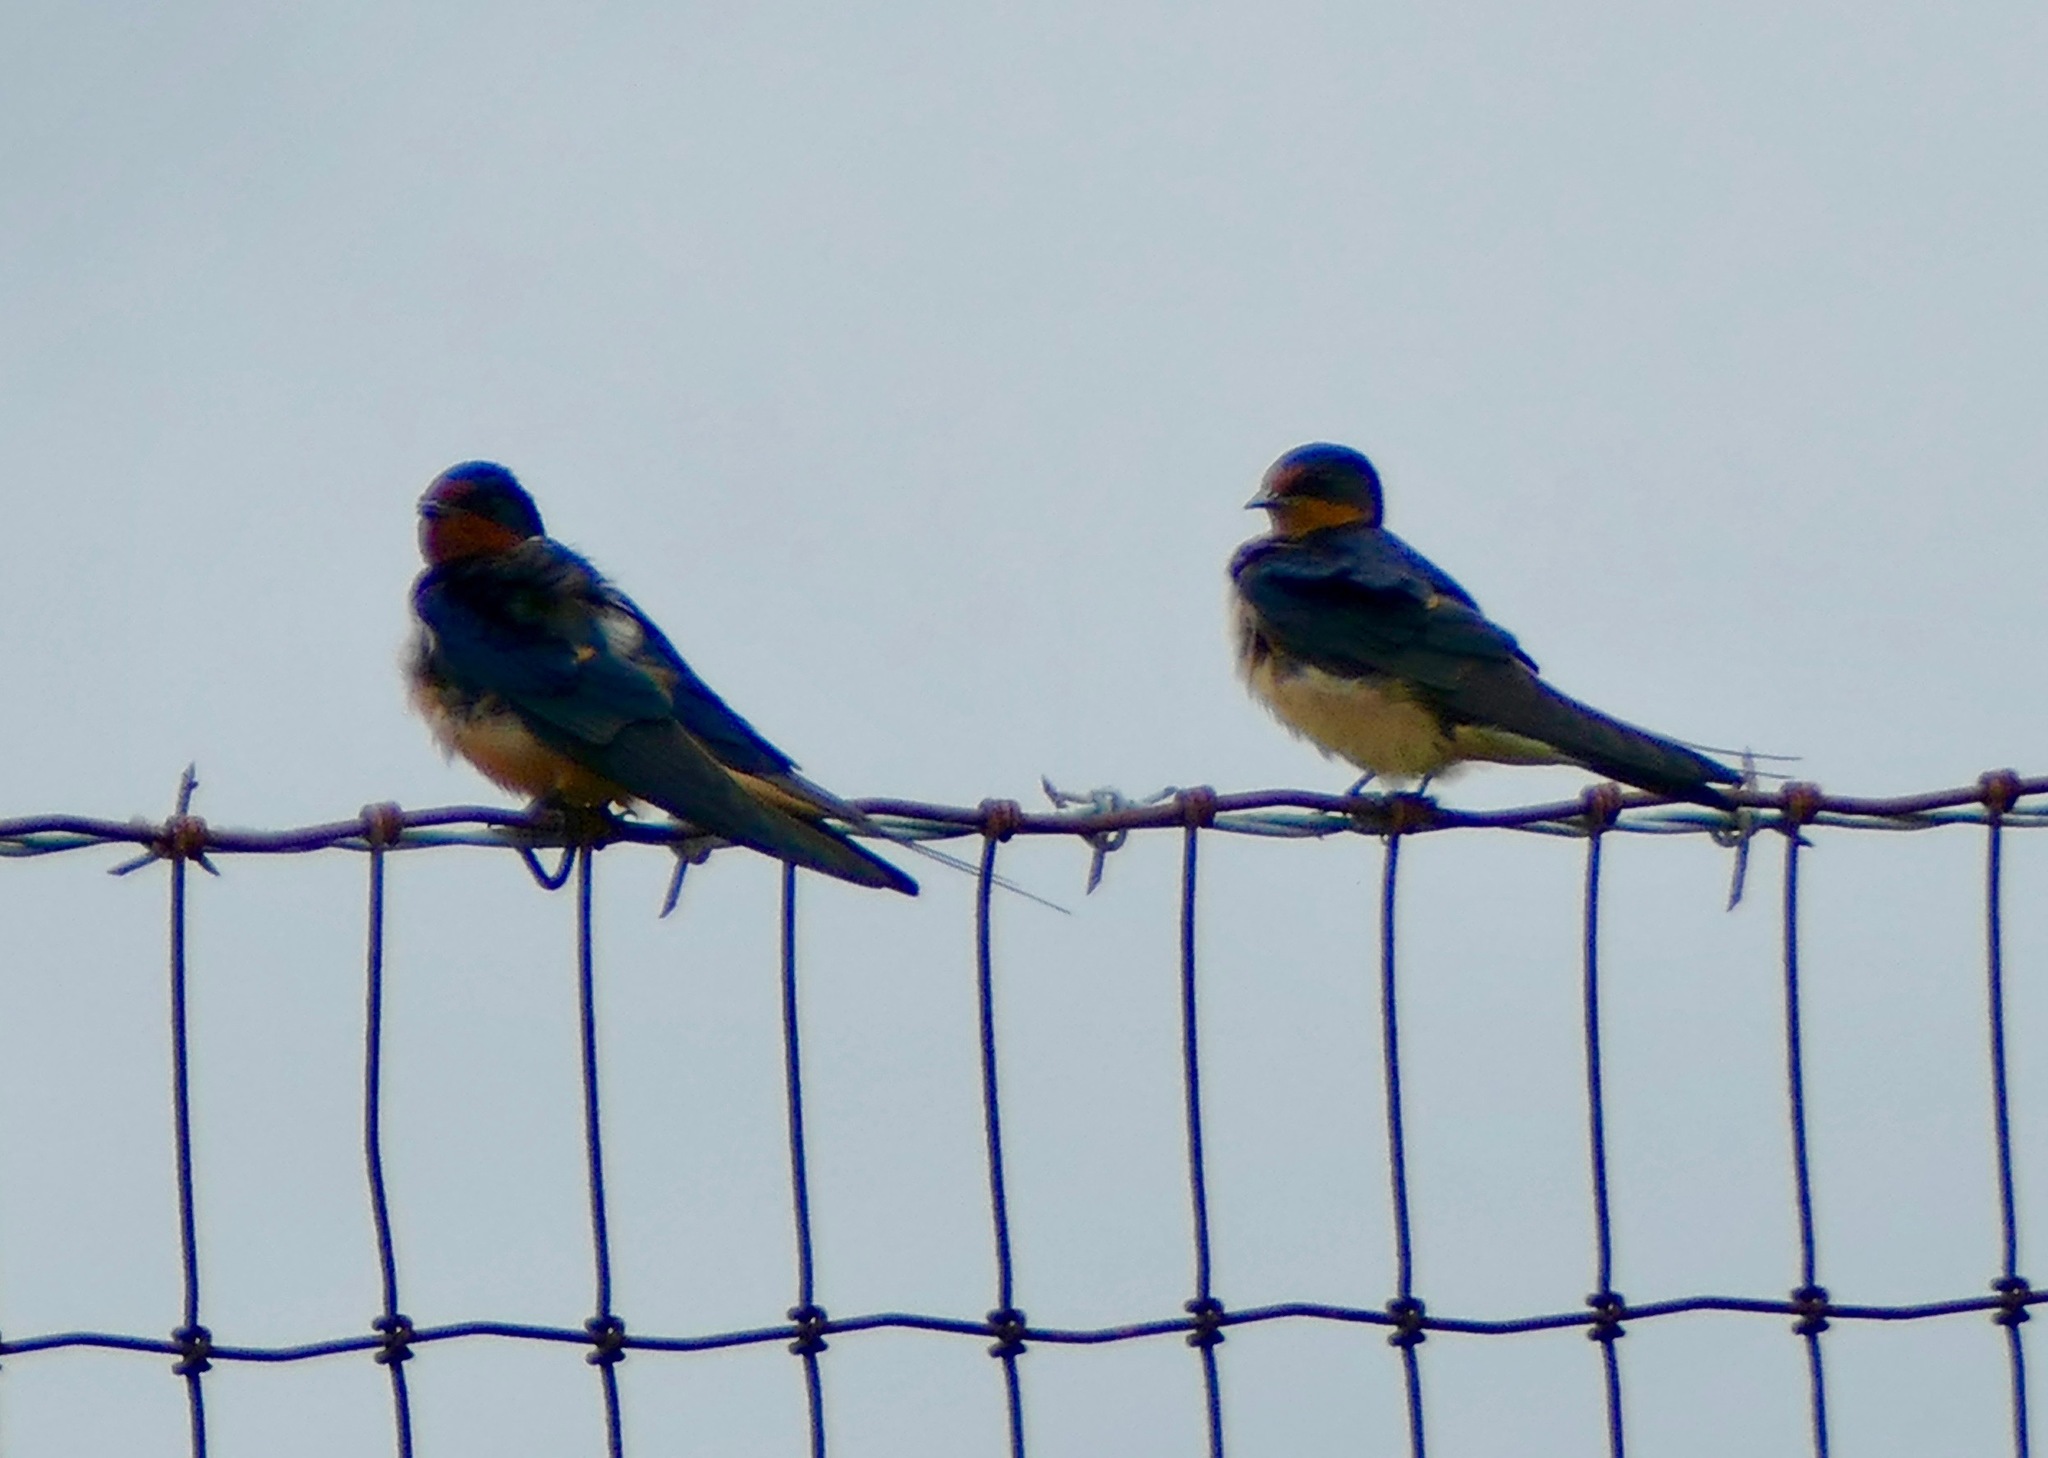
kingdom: Animalia
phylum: Chordata
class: Aves
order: Passeriformes
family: Hirundinidae
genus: Hirundo
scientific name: Hirundo rustica
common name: Barn swallow
